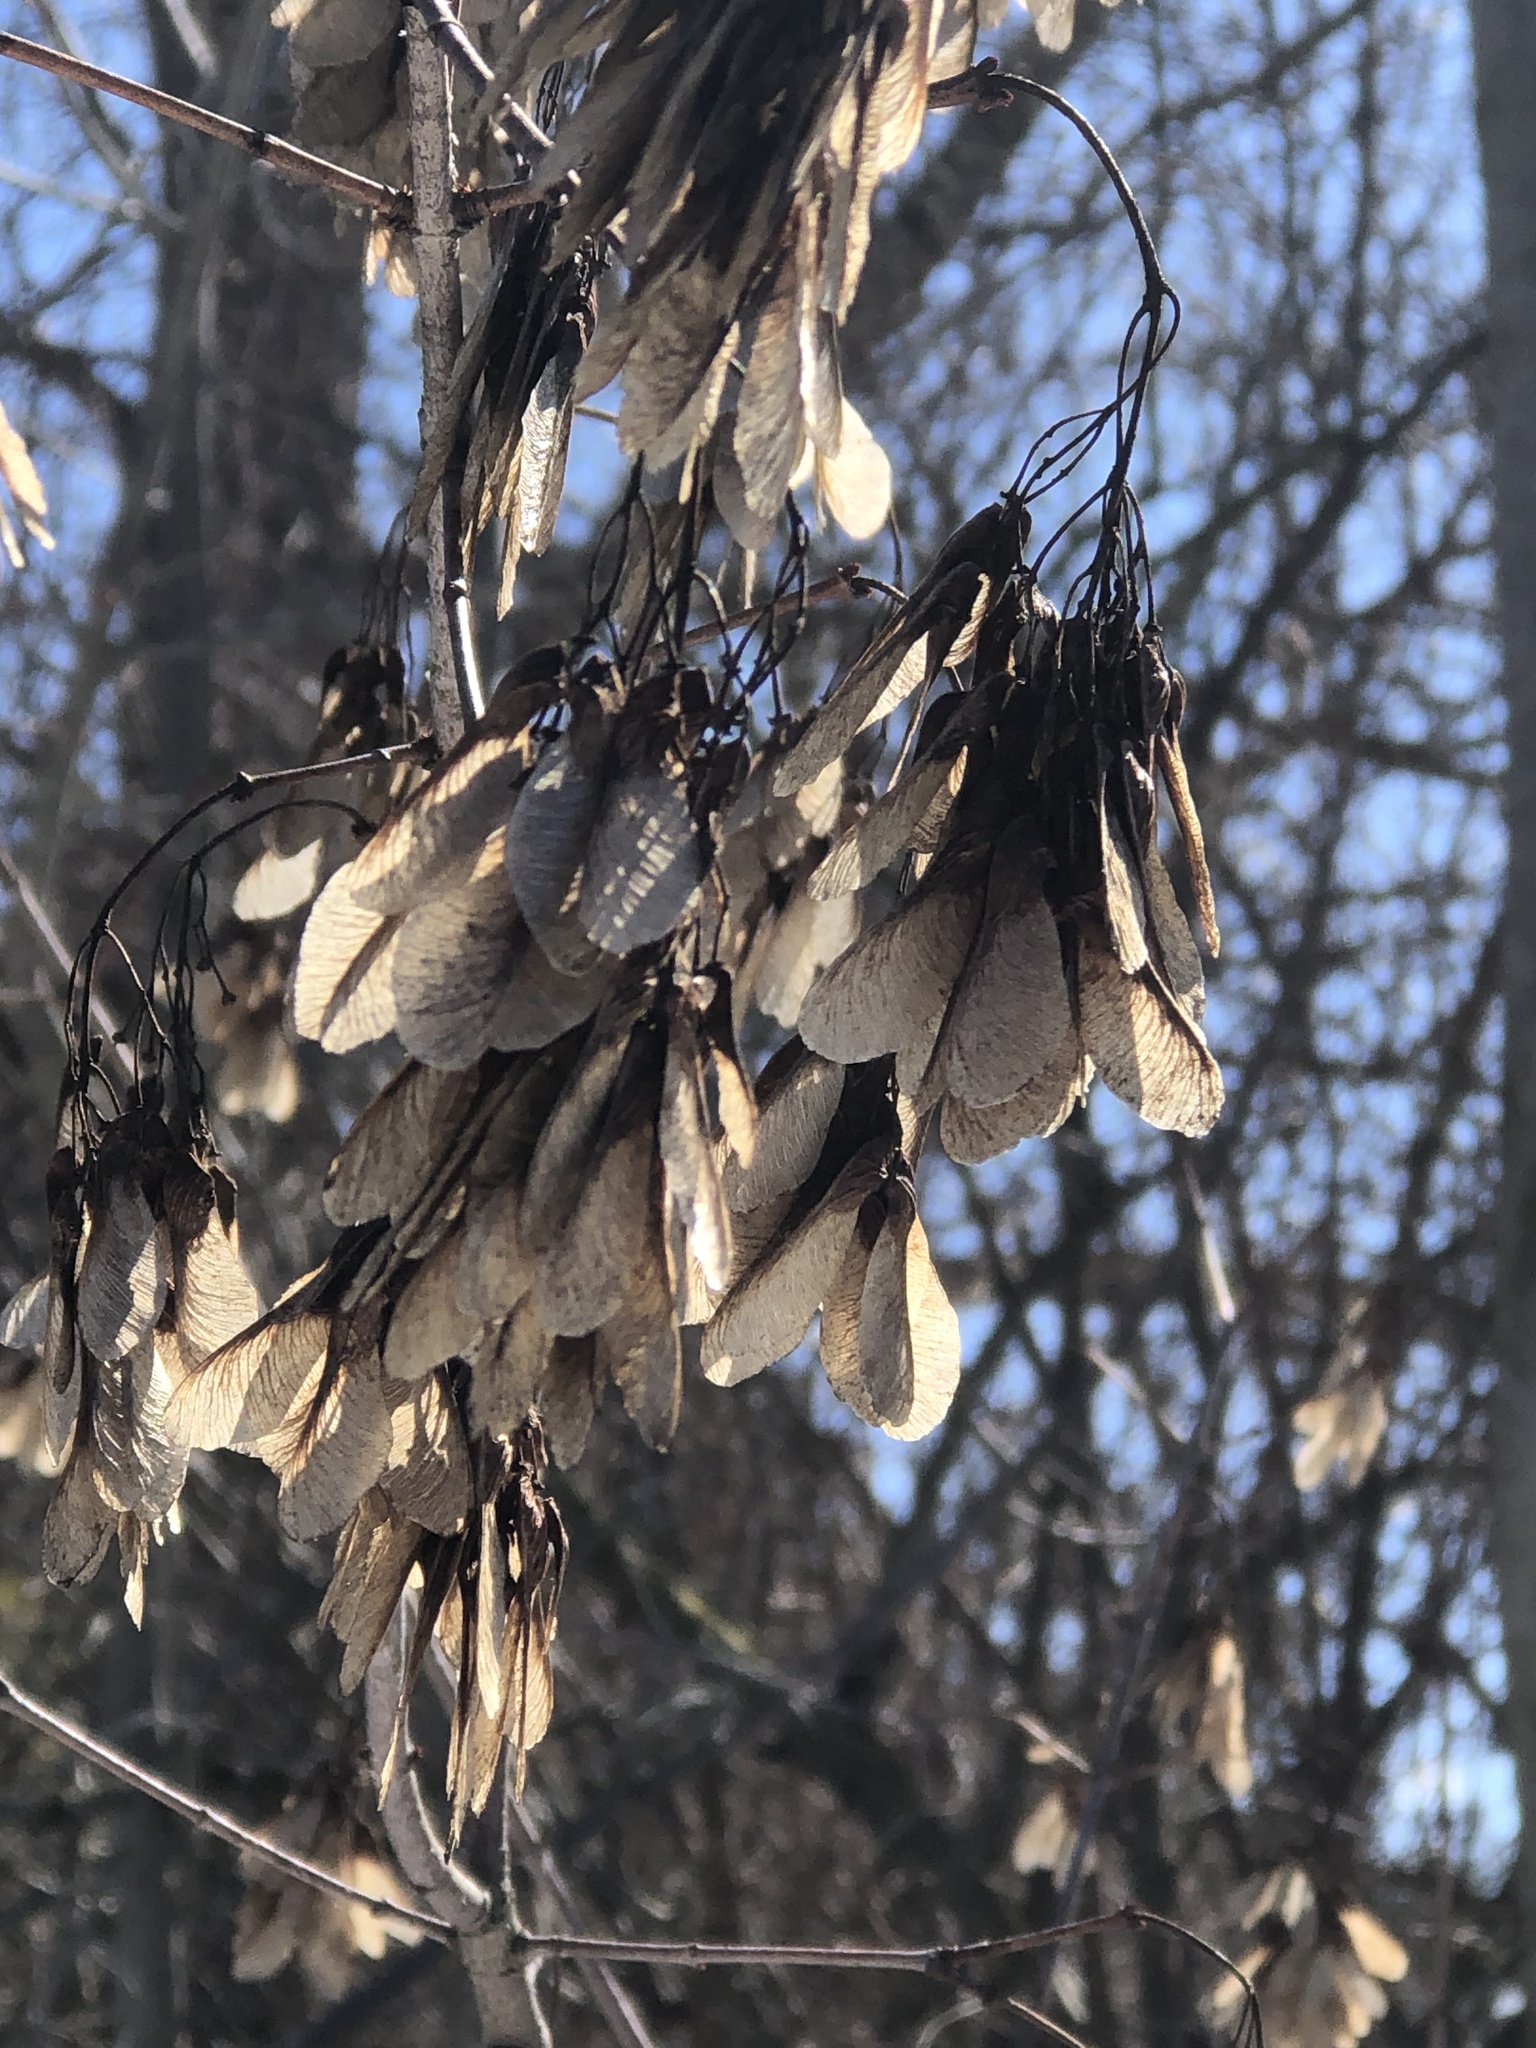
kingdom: Plantae
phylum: Tracheophyta
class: Magnoliopsida
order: Sapindales
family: Sapindaceae
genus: Acer
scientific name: Acer tataricum
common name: Tartar maple
